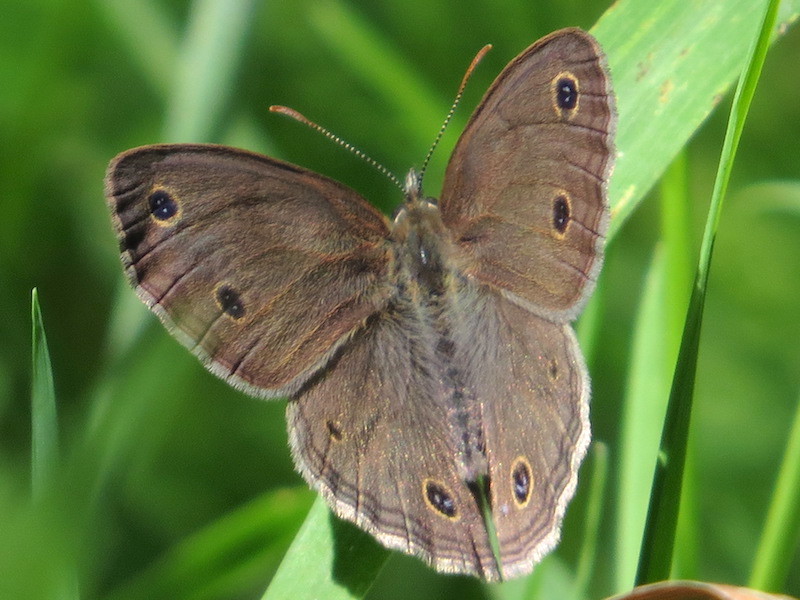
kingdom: Animalia
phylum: Arthropoda
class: Insecta
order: Lepidoptera
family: Nymphalidae
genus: Euptychia
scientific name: Euptychia cymela
